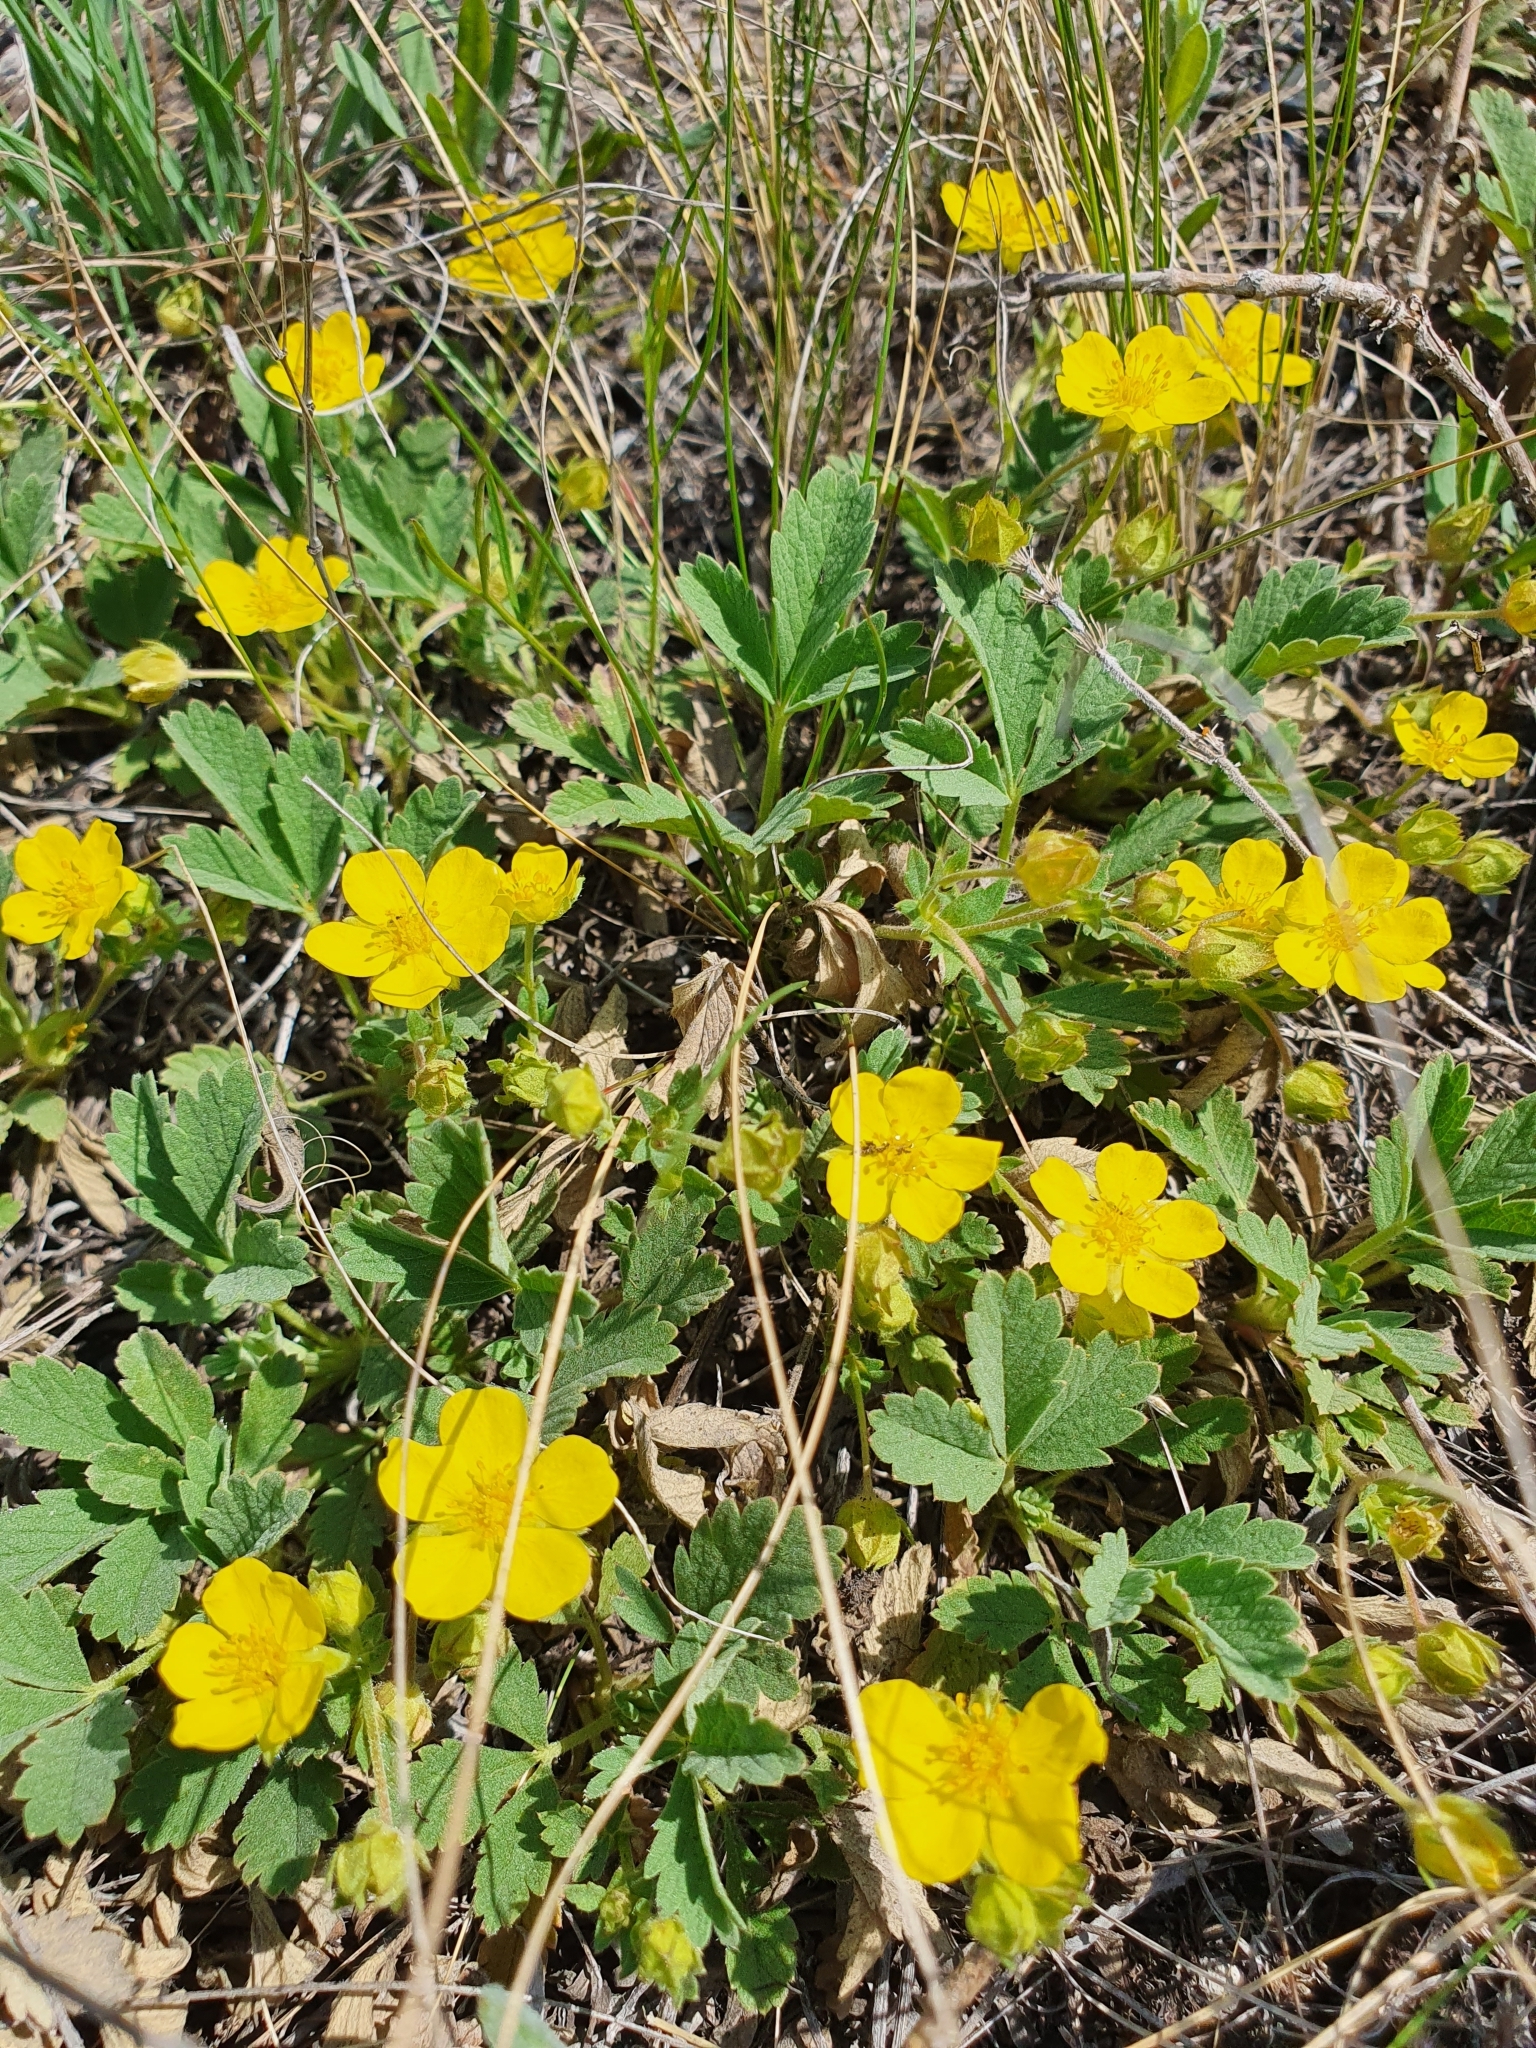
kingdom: Plantae
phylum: Tracheophyta
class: Magnoliopsida
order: Rosales
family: Rosaceae
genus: Potentilla
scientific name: Potentilla incana
